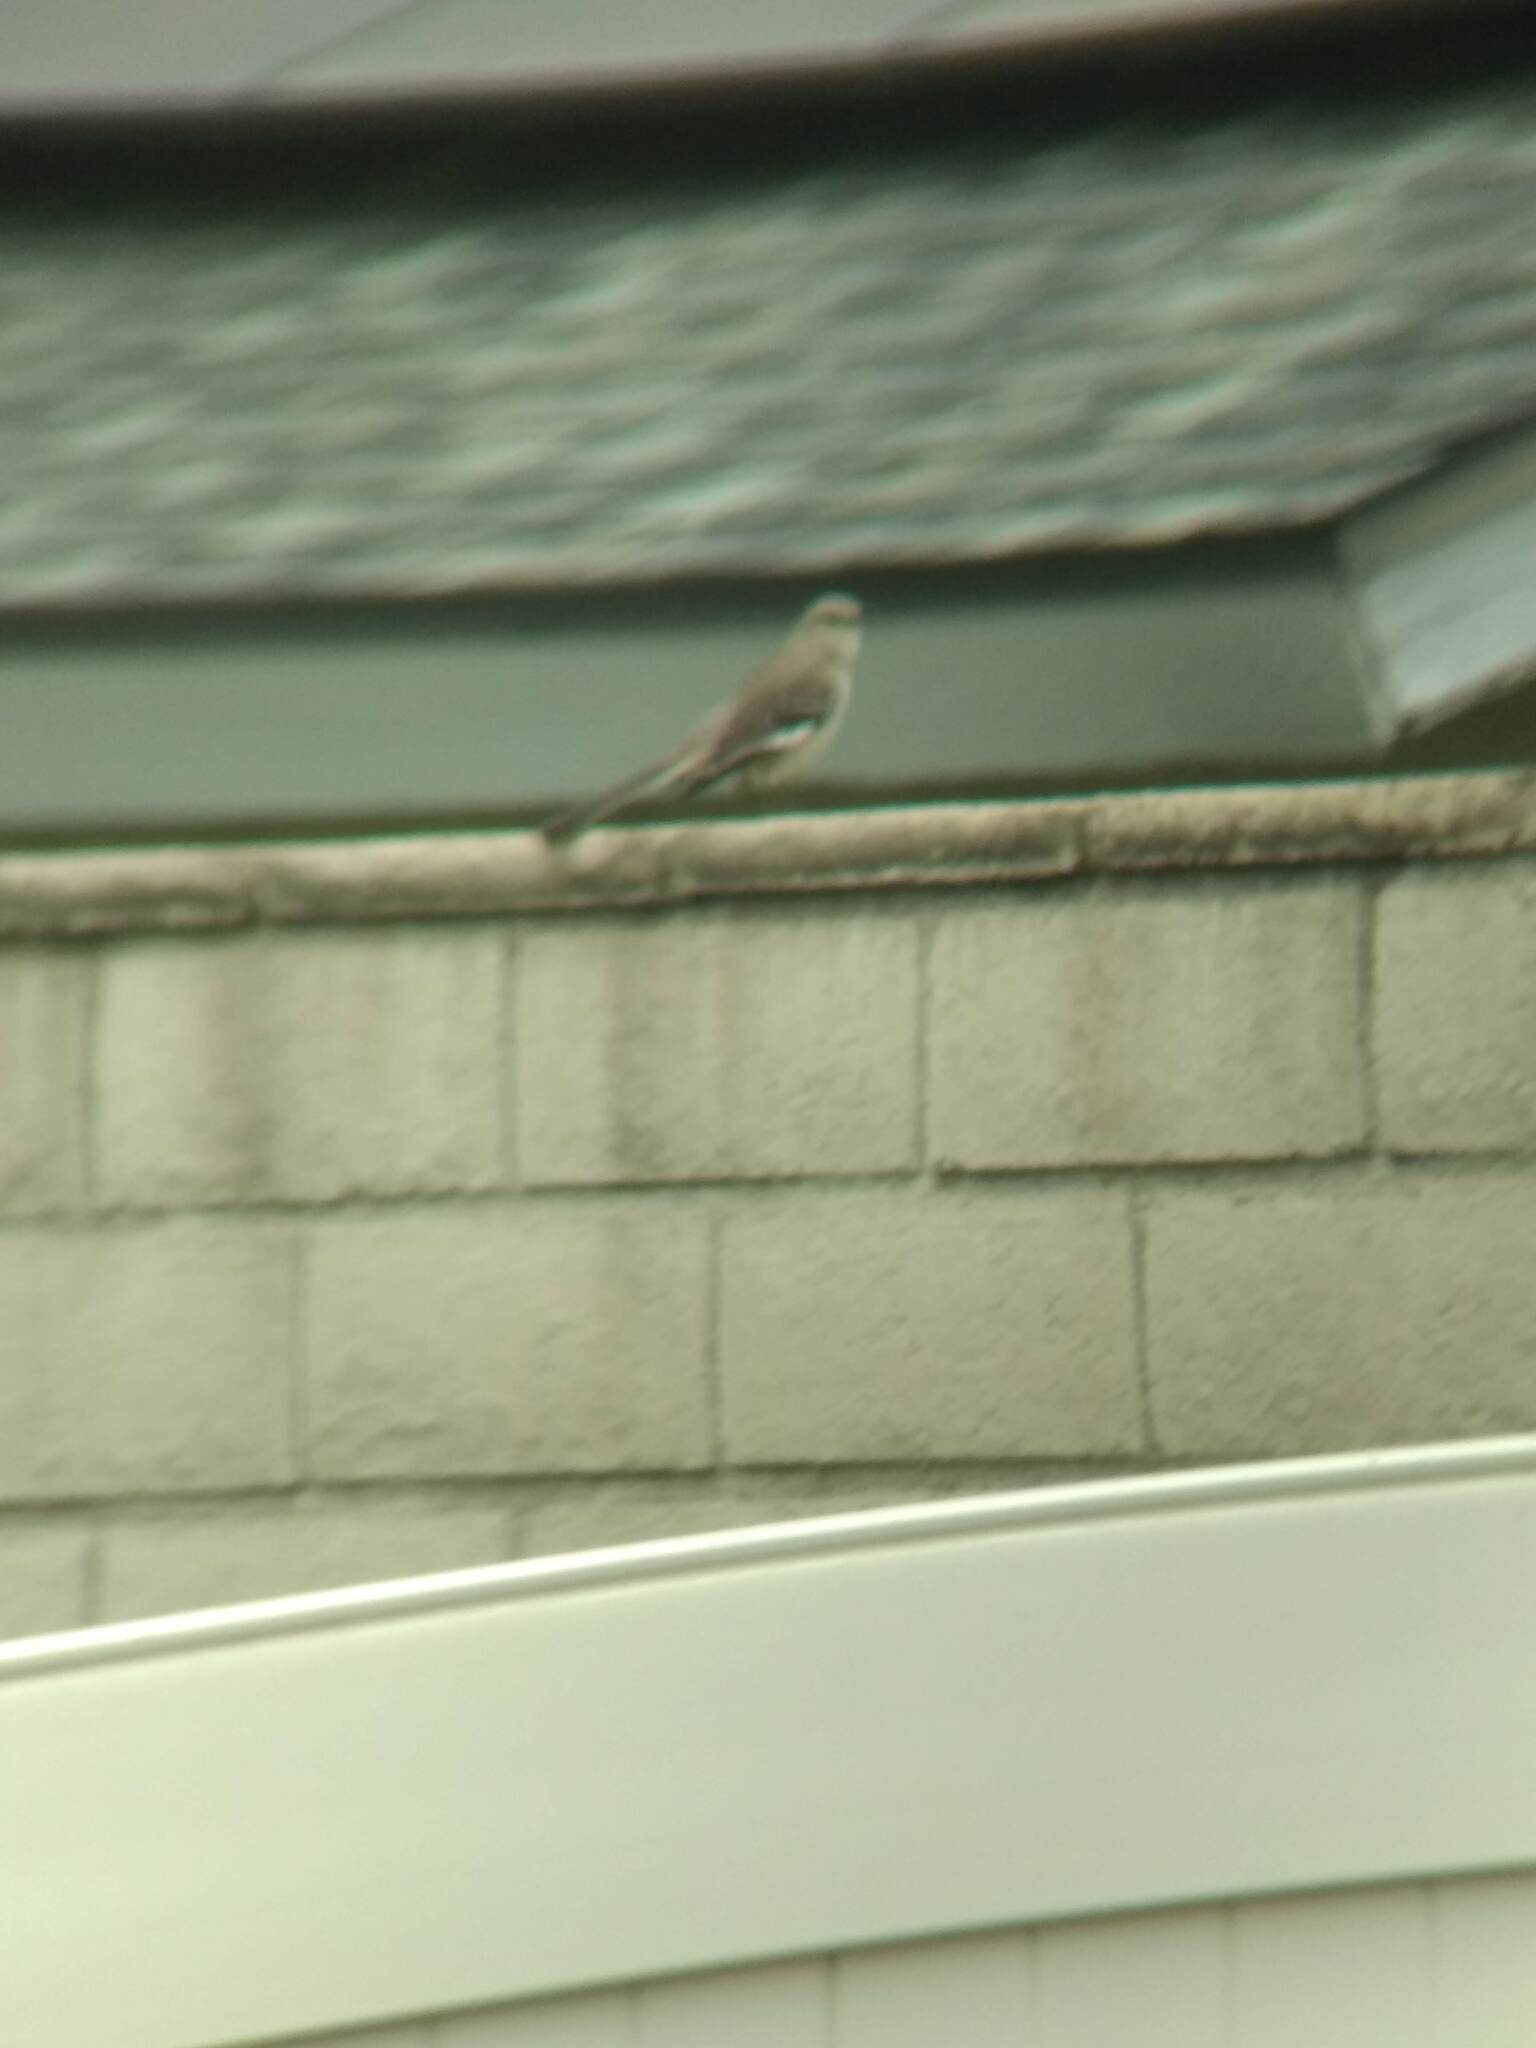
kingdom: Animalia
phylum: Chordata
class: Aves
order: Passeriformes
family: Mimidae
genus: Mimus
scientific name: Mimus polyglottos
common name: Northern mockingbird
